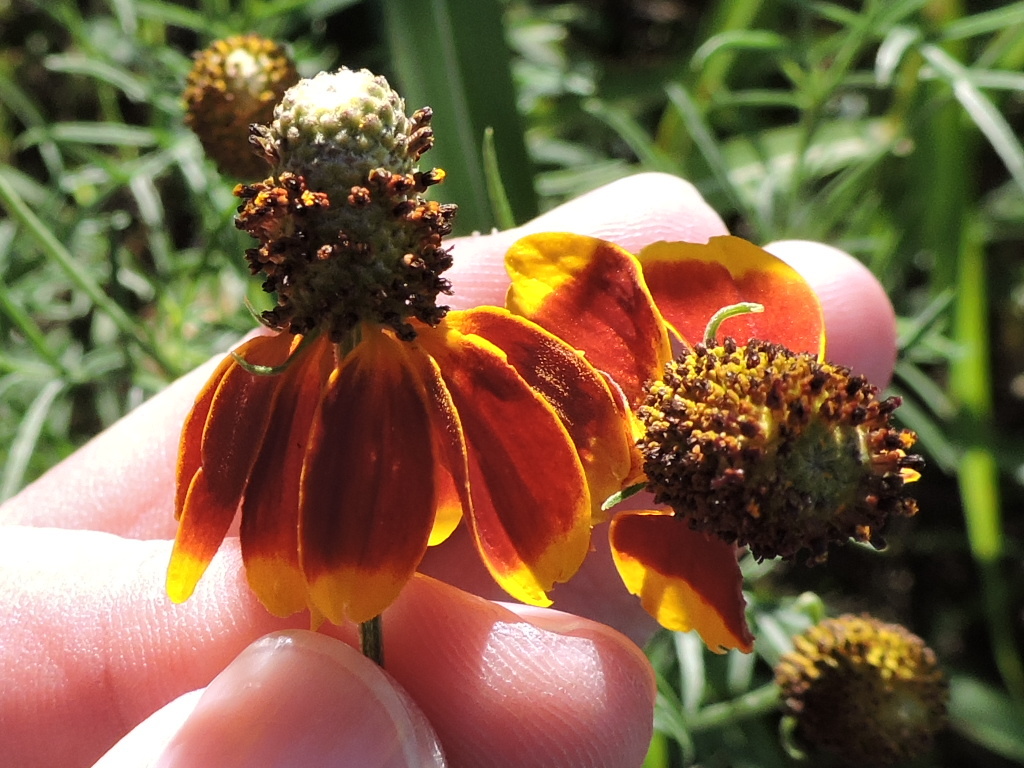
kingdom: Plantae
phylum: Tracheophyta
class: Magnoliopsida
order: Asterales
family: Asteraceae
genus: Ratibida
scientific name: Ratibida columnifera
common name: Prairie coneflower
